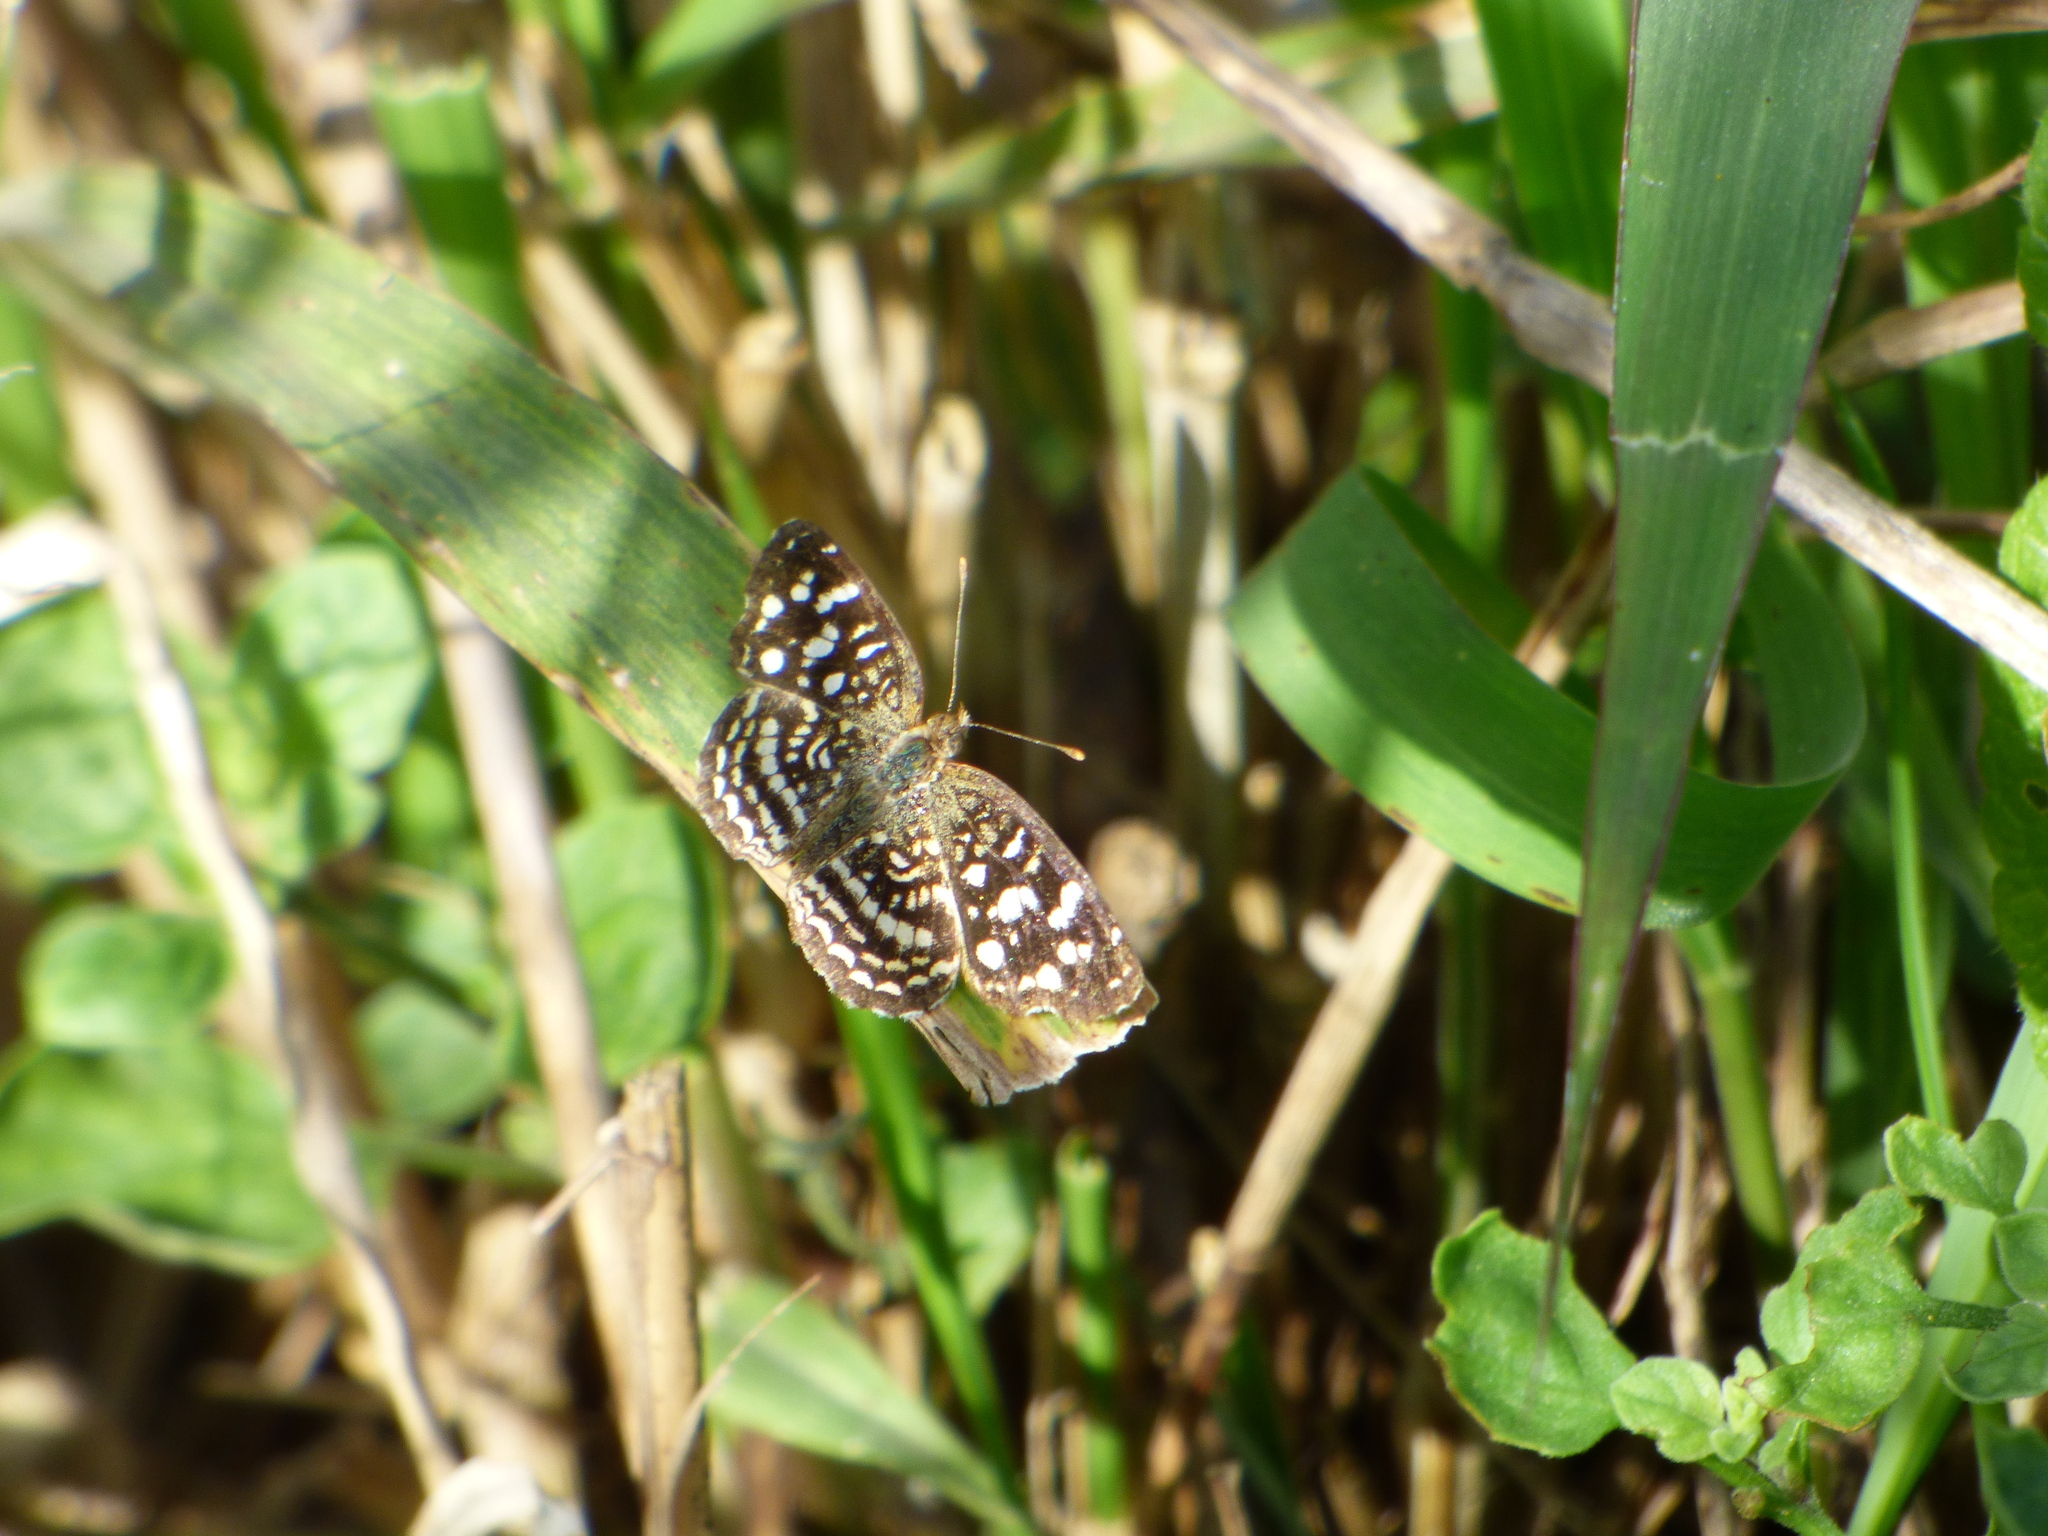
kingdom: Animalia
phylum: Arthropoda
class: Insecta
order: Lepidoptera
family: Nymphalidae
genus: Anthanassa
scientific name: Anthanassa hermas
